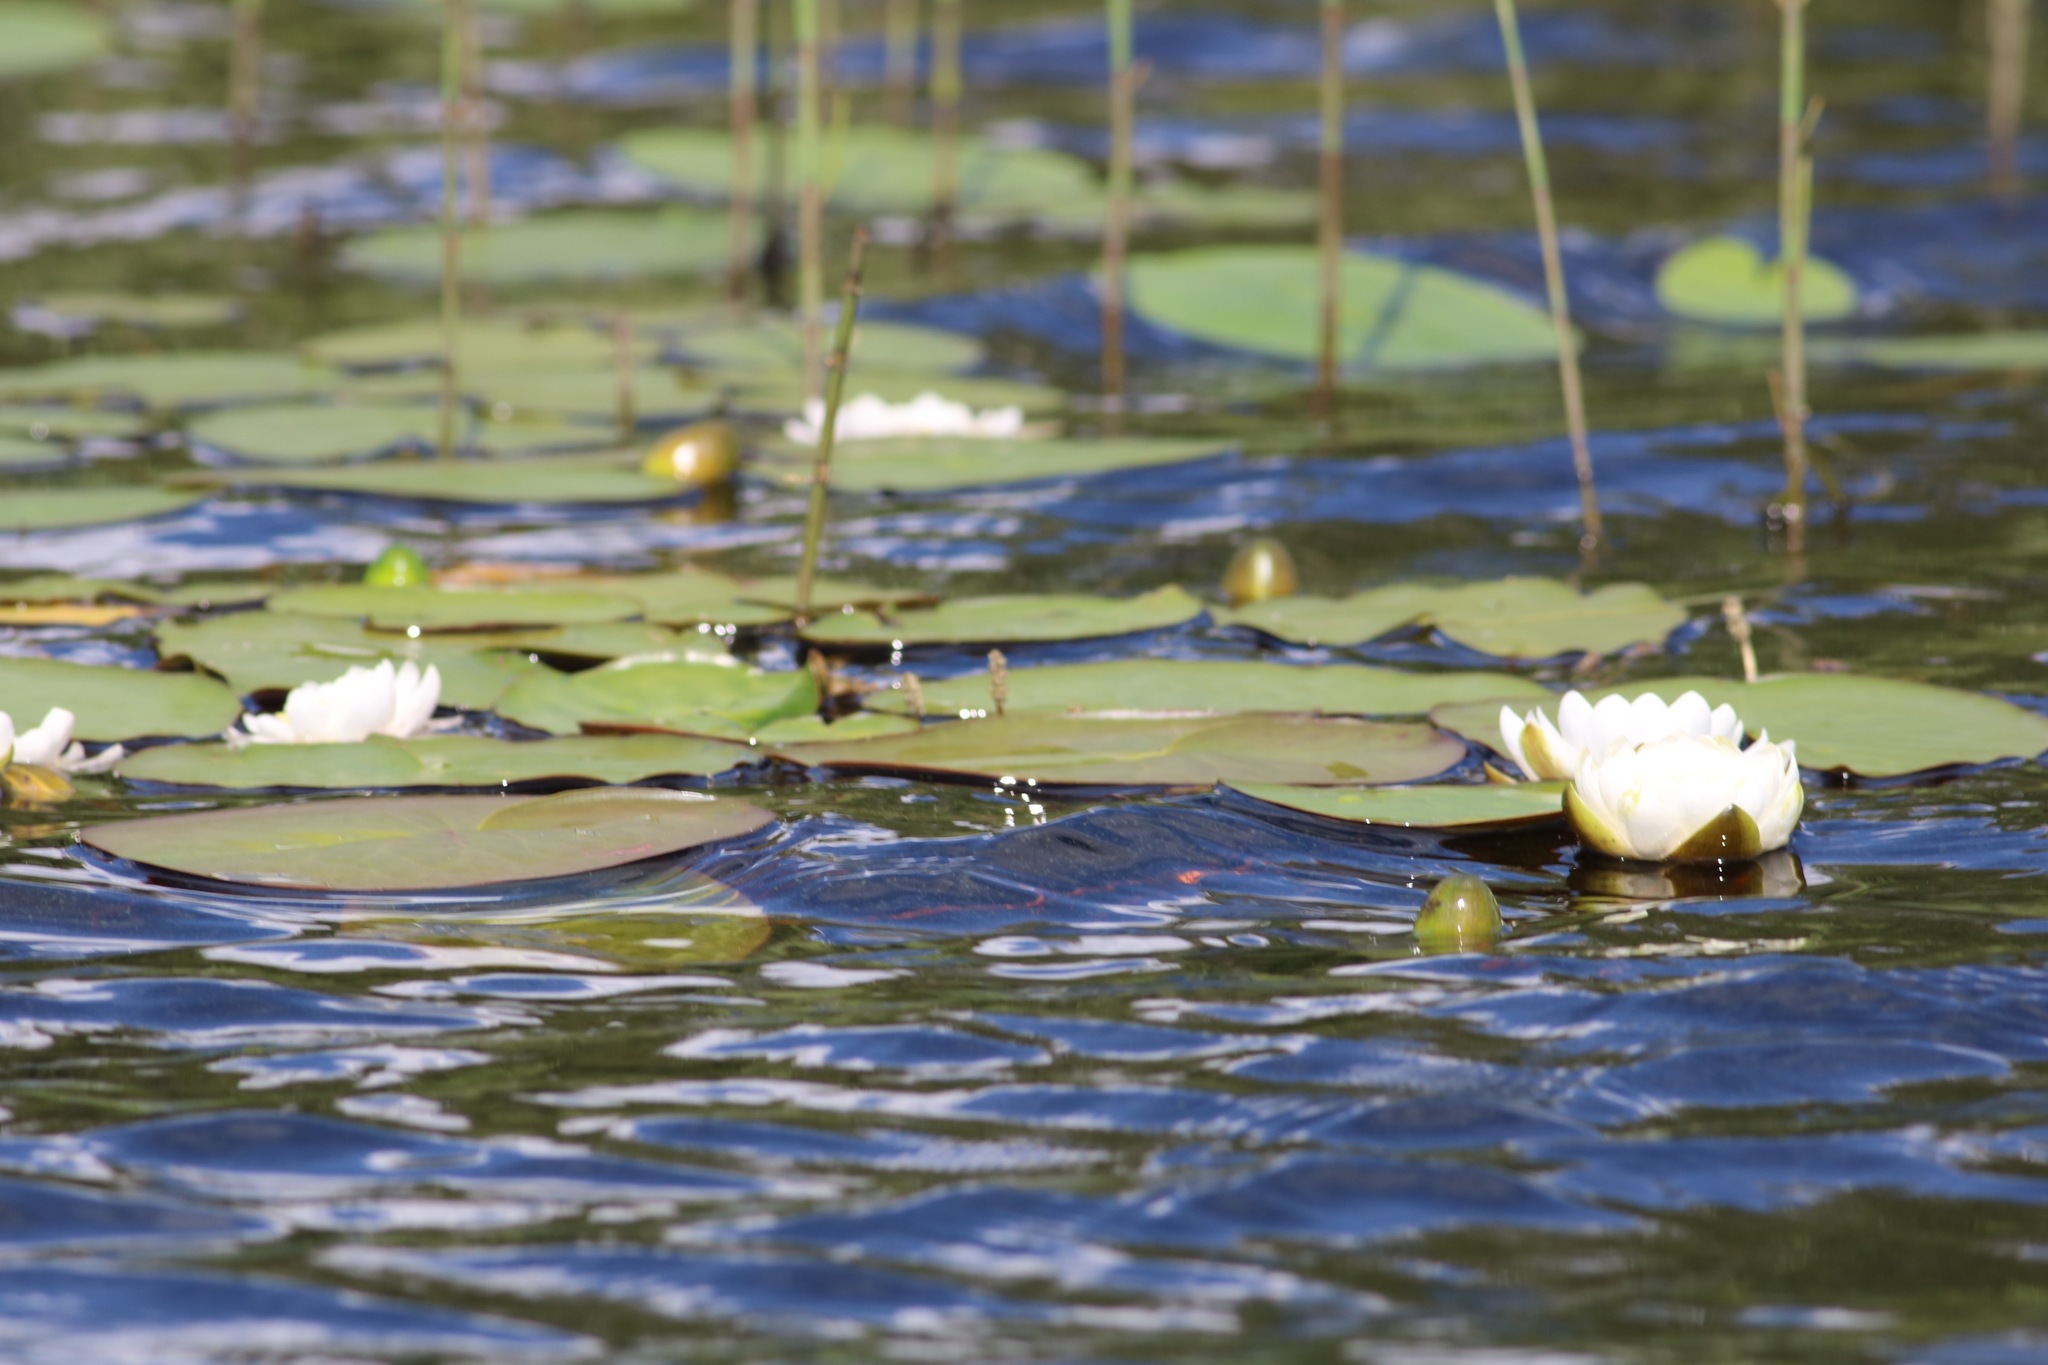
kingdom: Plantae
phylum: Tracheophyta
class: Magnoliopsida
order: Nymphaeales
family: Nymphaeaceae
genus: Nymphaea
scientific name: Nymphaea candida
